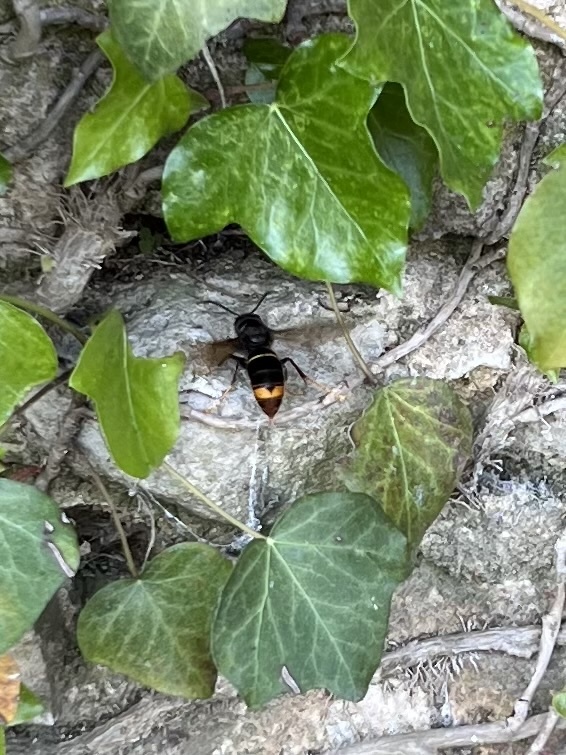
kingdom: Animalia
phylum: Arthropoda
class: Insecta
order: Hymenoptera
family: Vespidae
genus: Vespa
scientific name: Vespa velutina
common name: Asian hornet
